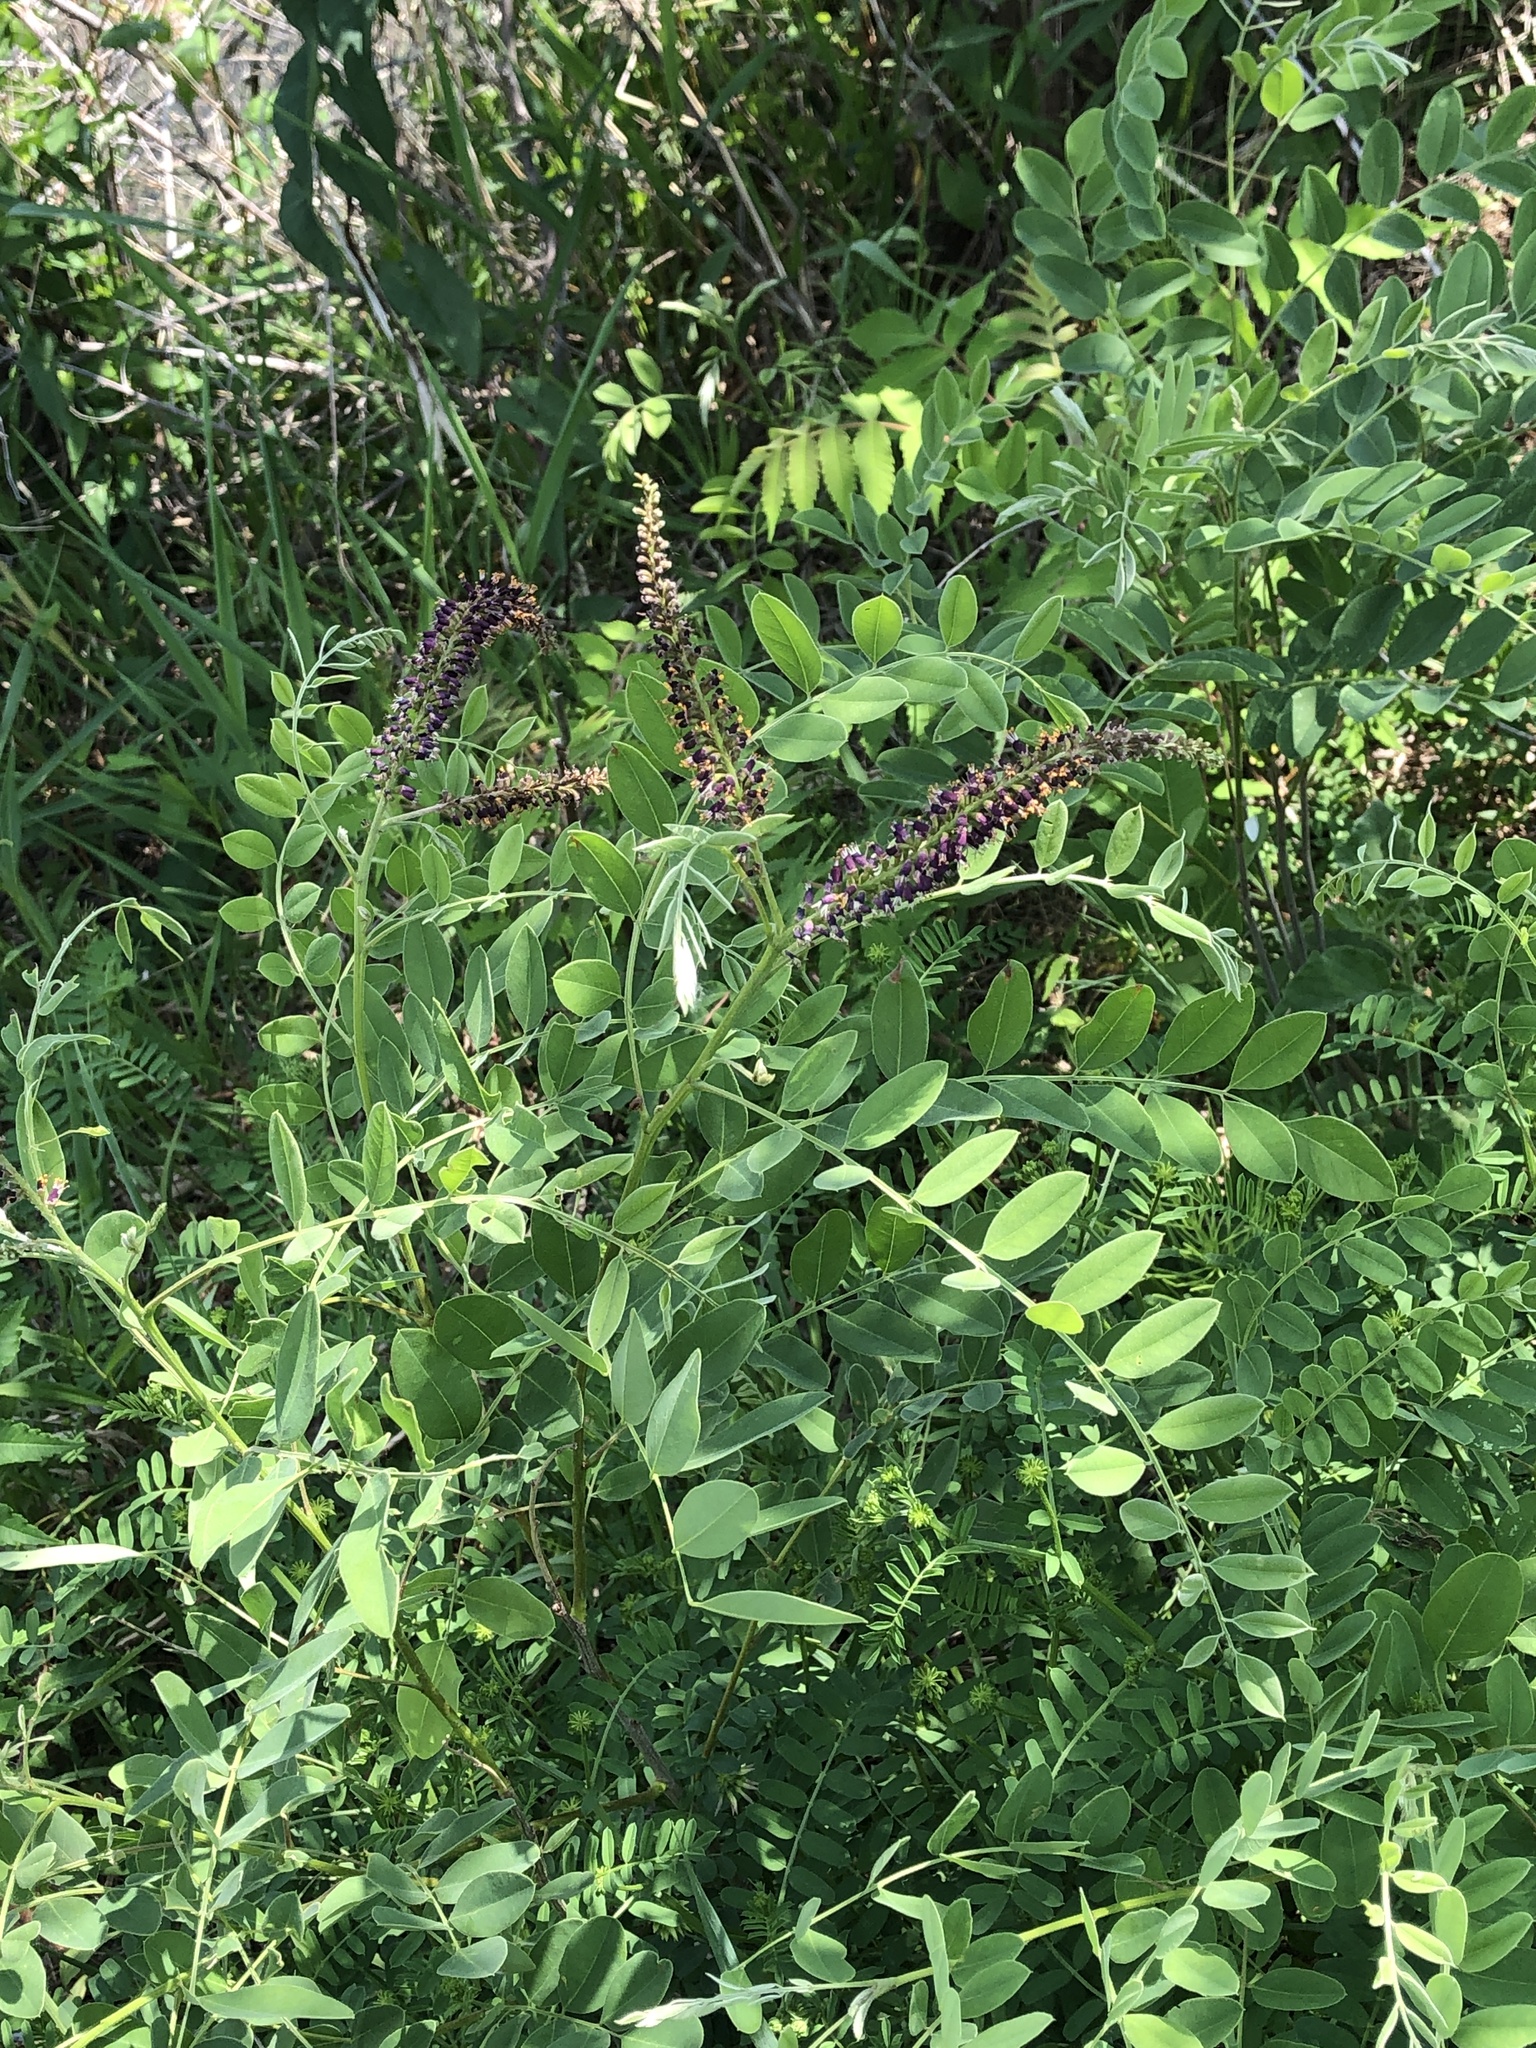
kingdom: Plantae
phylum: Tracheophyta
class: Magnoliopsida
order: Fabales
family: Fabaceae
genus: Amorpha
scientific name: Amorpha fruticosa
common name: False indigo
